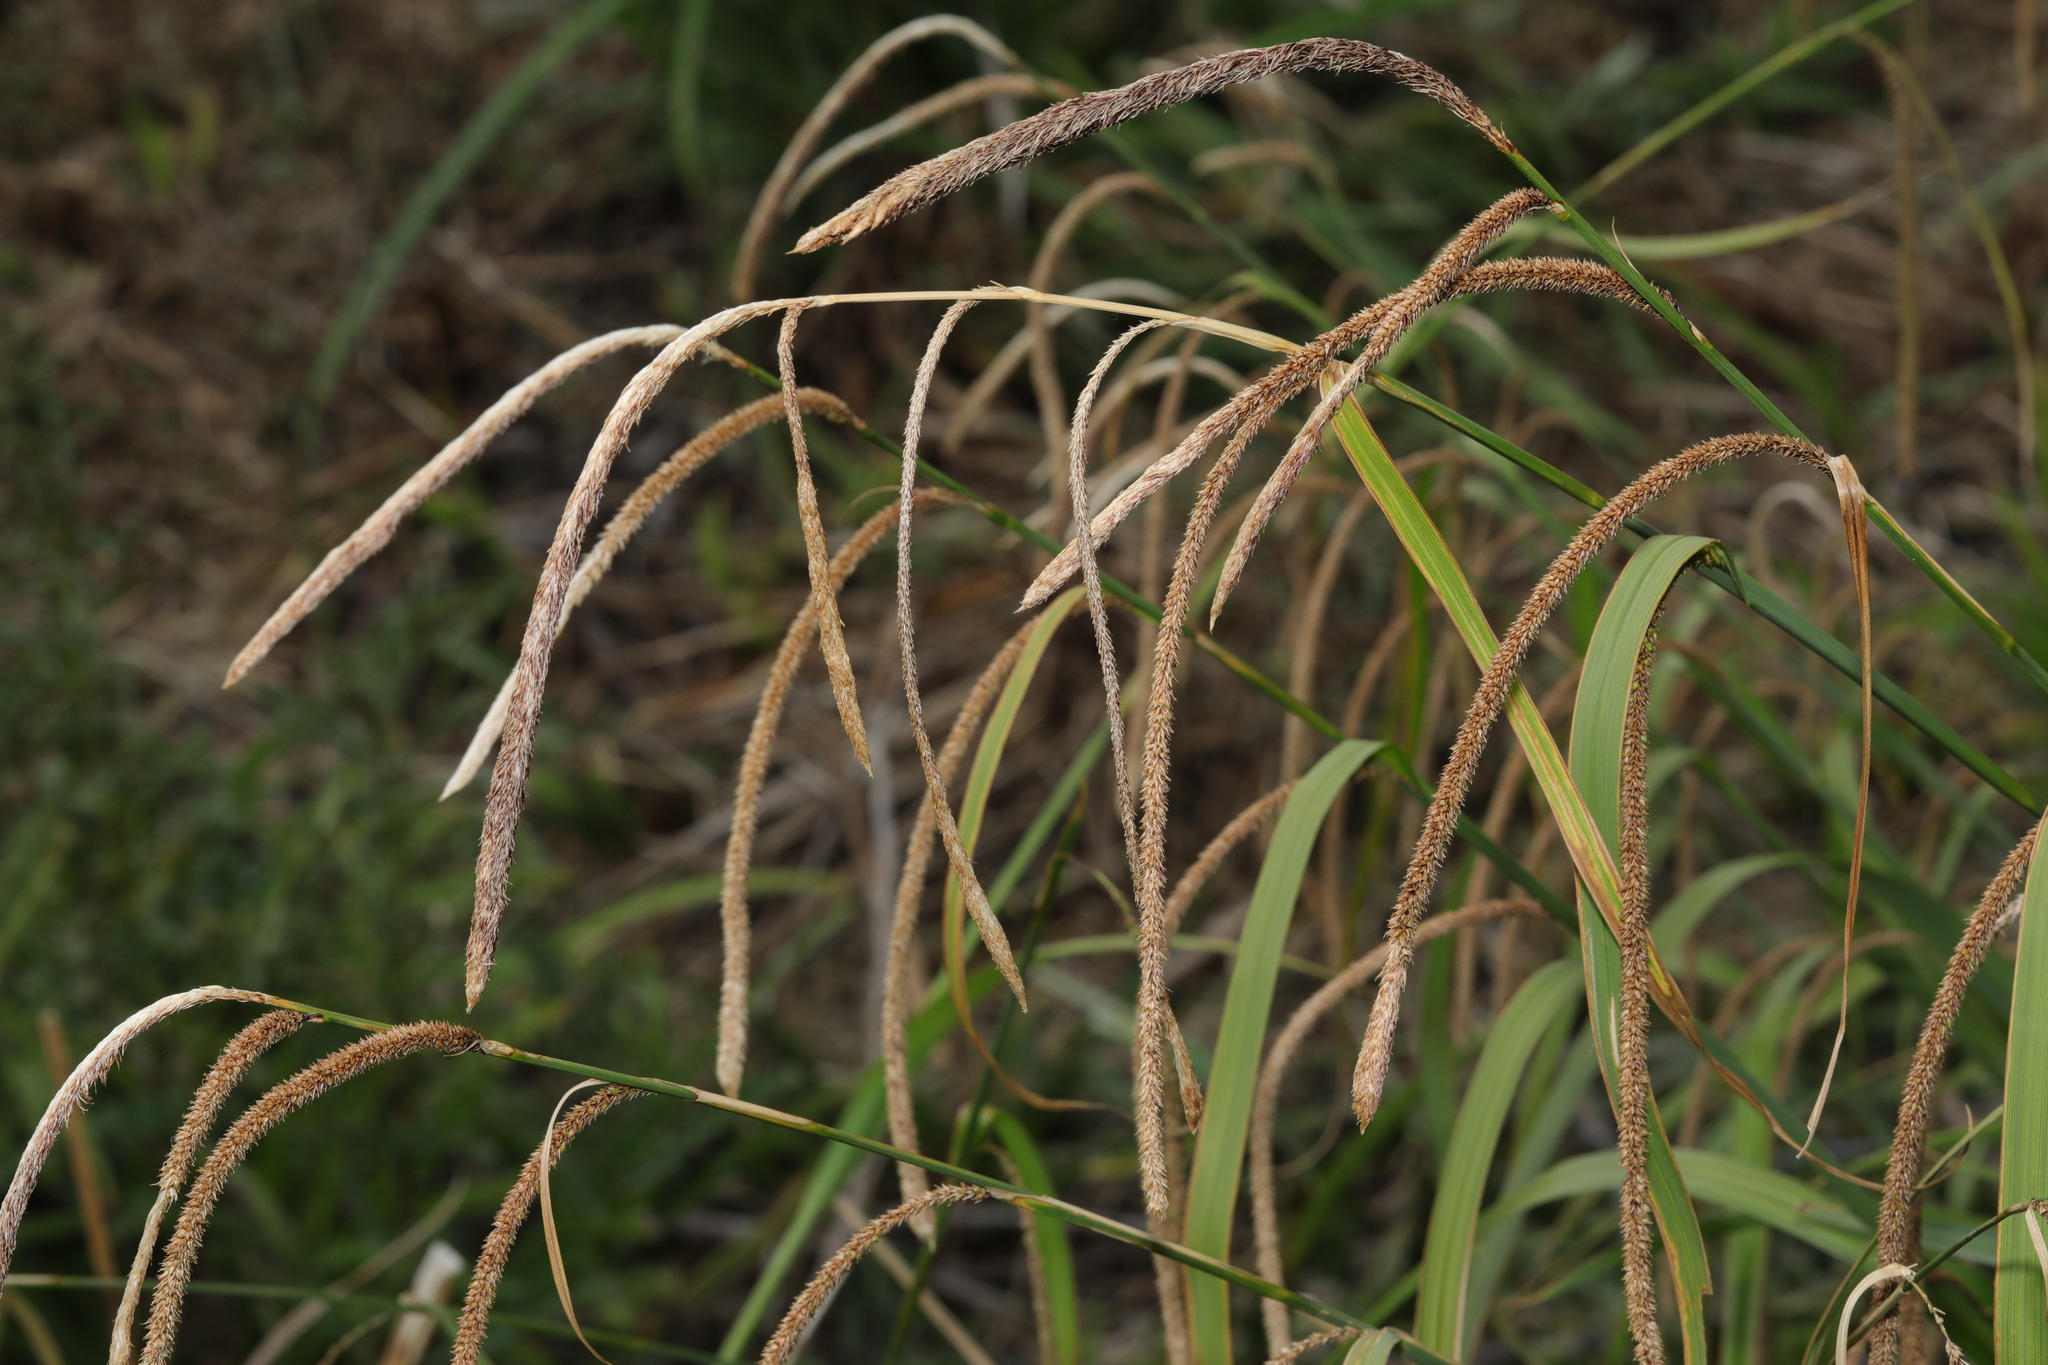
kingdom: Plantae
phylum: Tracheophyta
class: Liliopsida
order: Poales
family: Cyperaceae
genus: Carex
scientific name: Carex pendula
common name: Pendulous sedge
